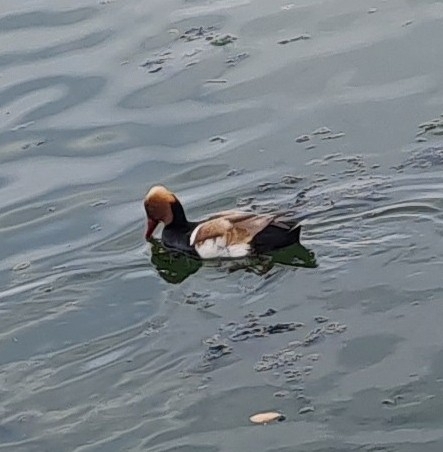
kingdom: Animalia
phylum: Chordata
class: Aves
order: Anseriformes
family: Anatidae
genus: Netta
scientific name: Netta rufina
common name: Red-crested pochard
